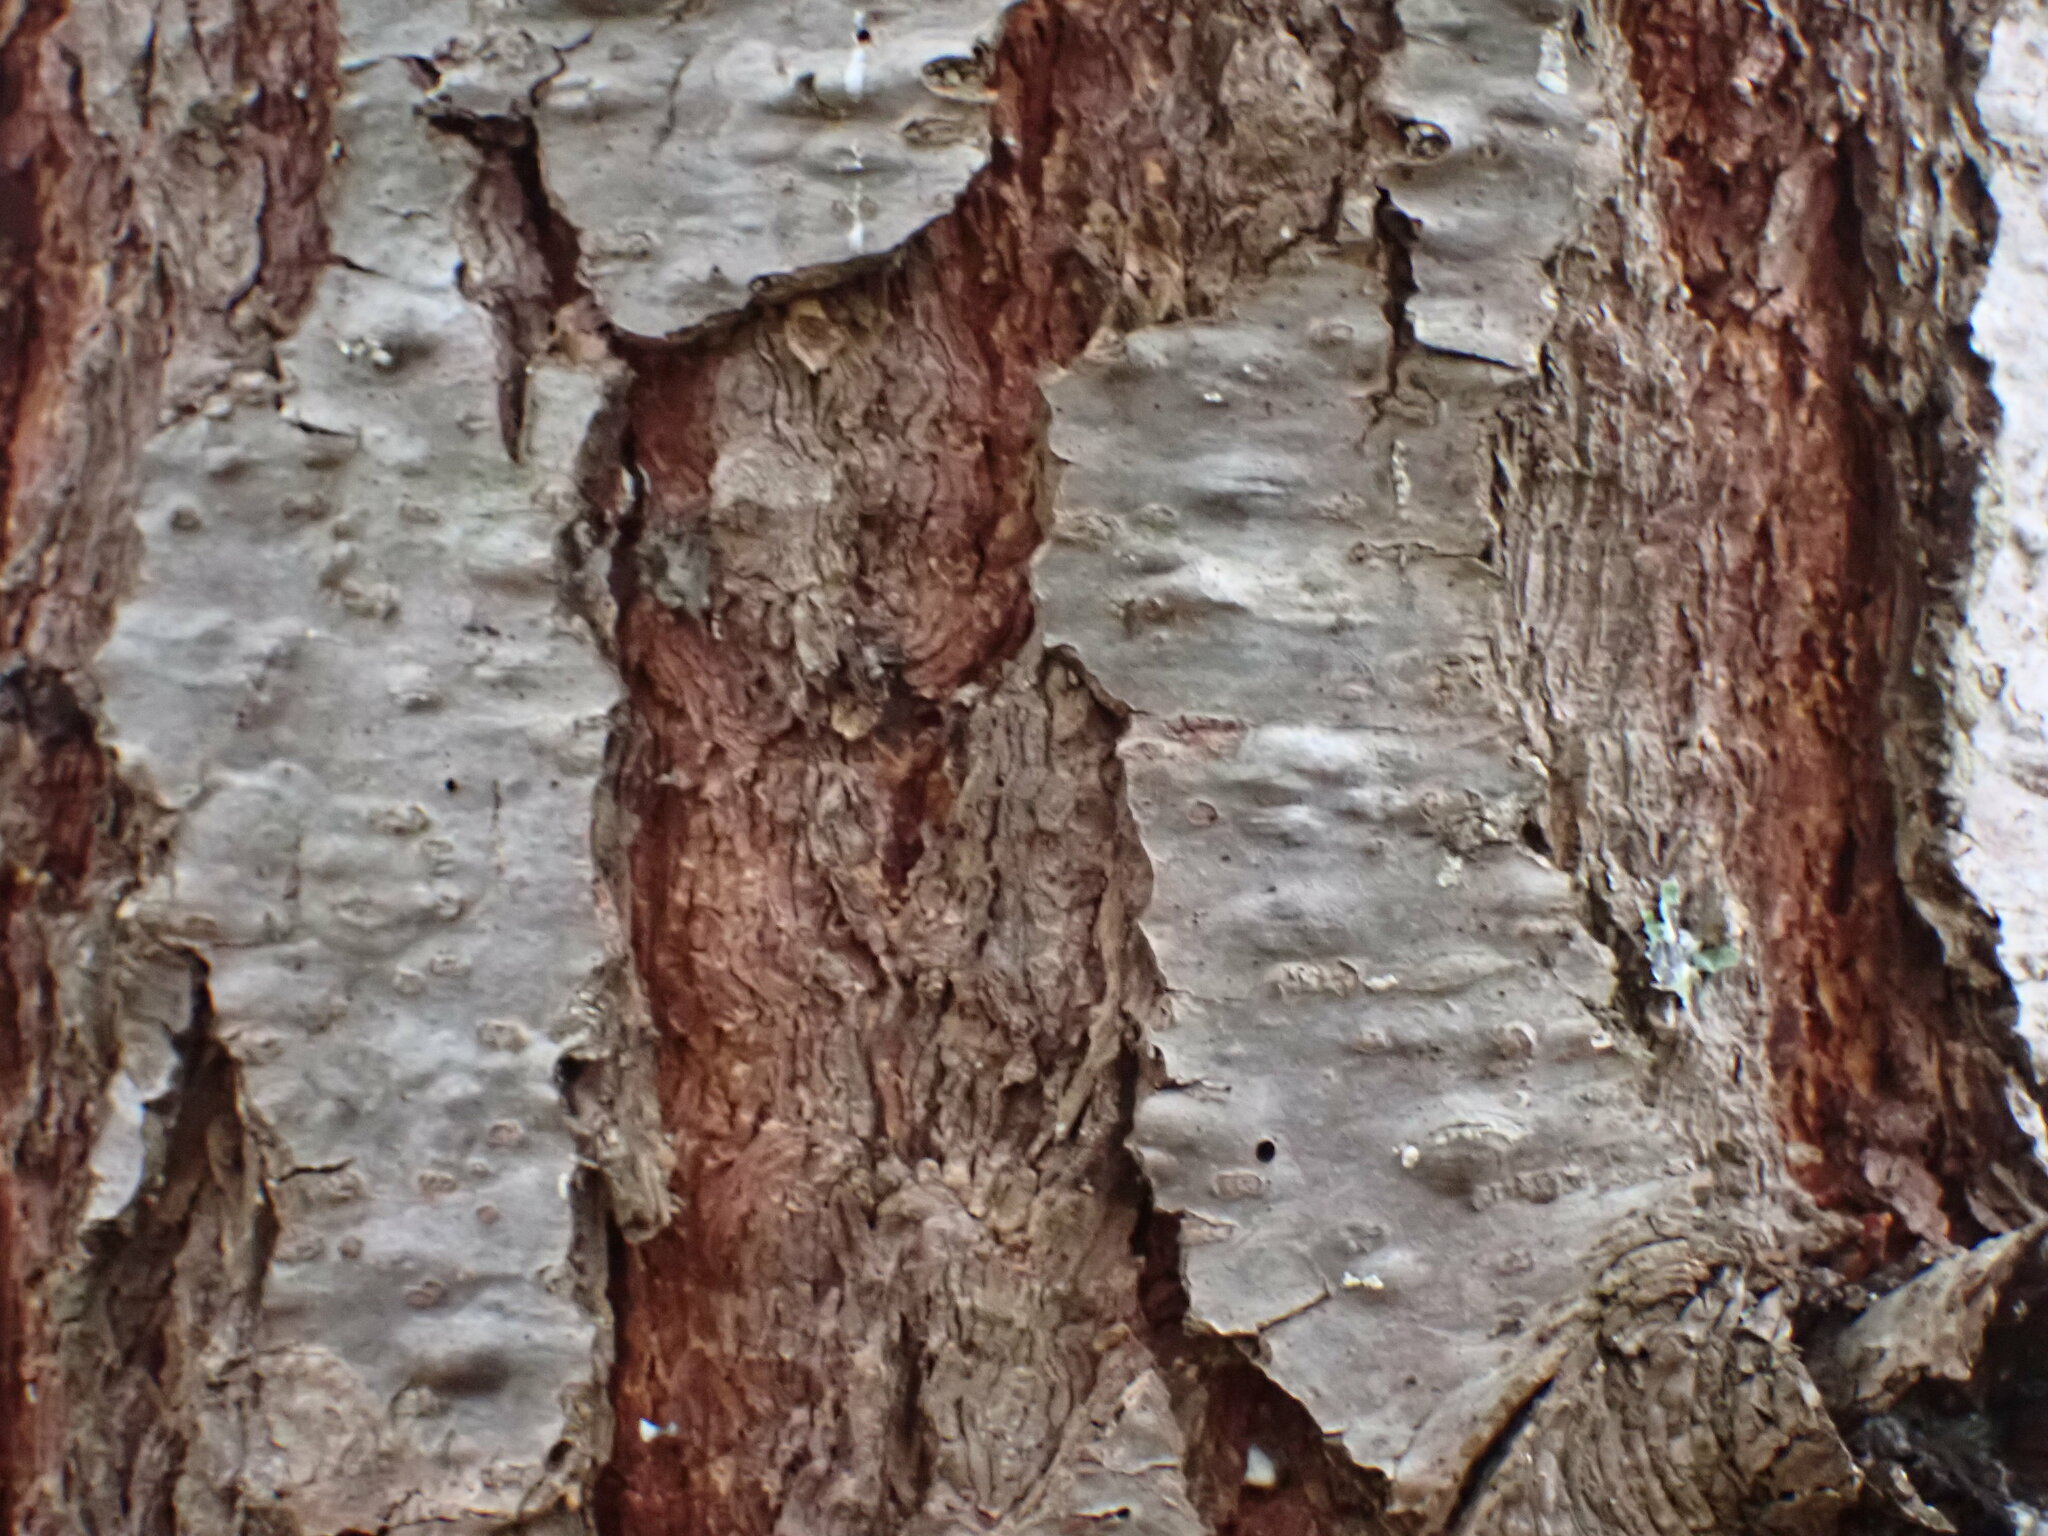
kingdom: Plantae
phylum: Tracheophyta
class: Pinopsida
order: Pinales
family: Pinaceae
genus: Pseudotsuga
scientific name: Pseudotsuga menziesii
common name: Douglas fir
